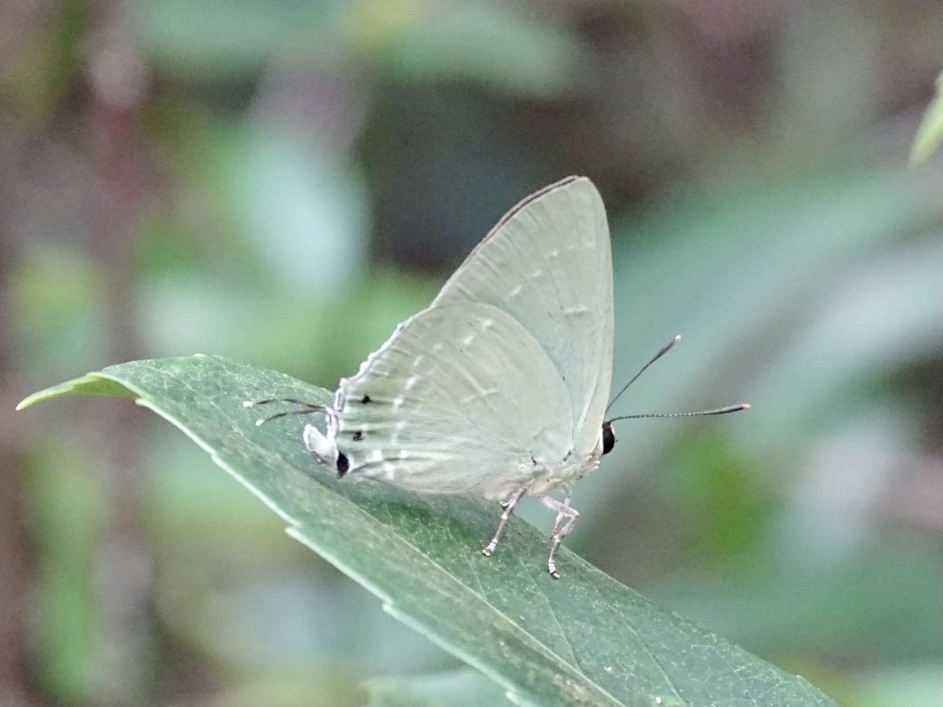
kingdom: Animalia
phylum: Arthropoda
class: Insecta
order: Lepidoptera
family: Lycaenidae
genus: Artipe
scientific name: Artipe eryx
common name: Green flash
